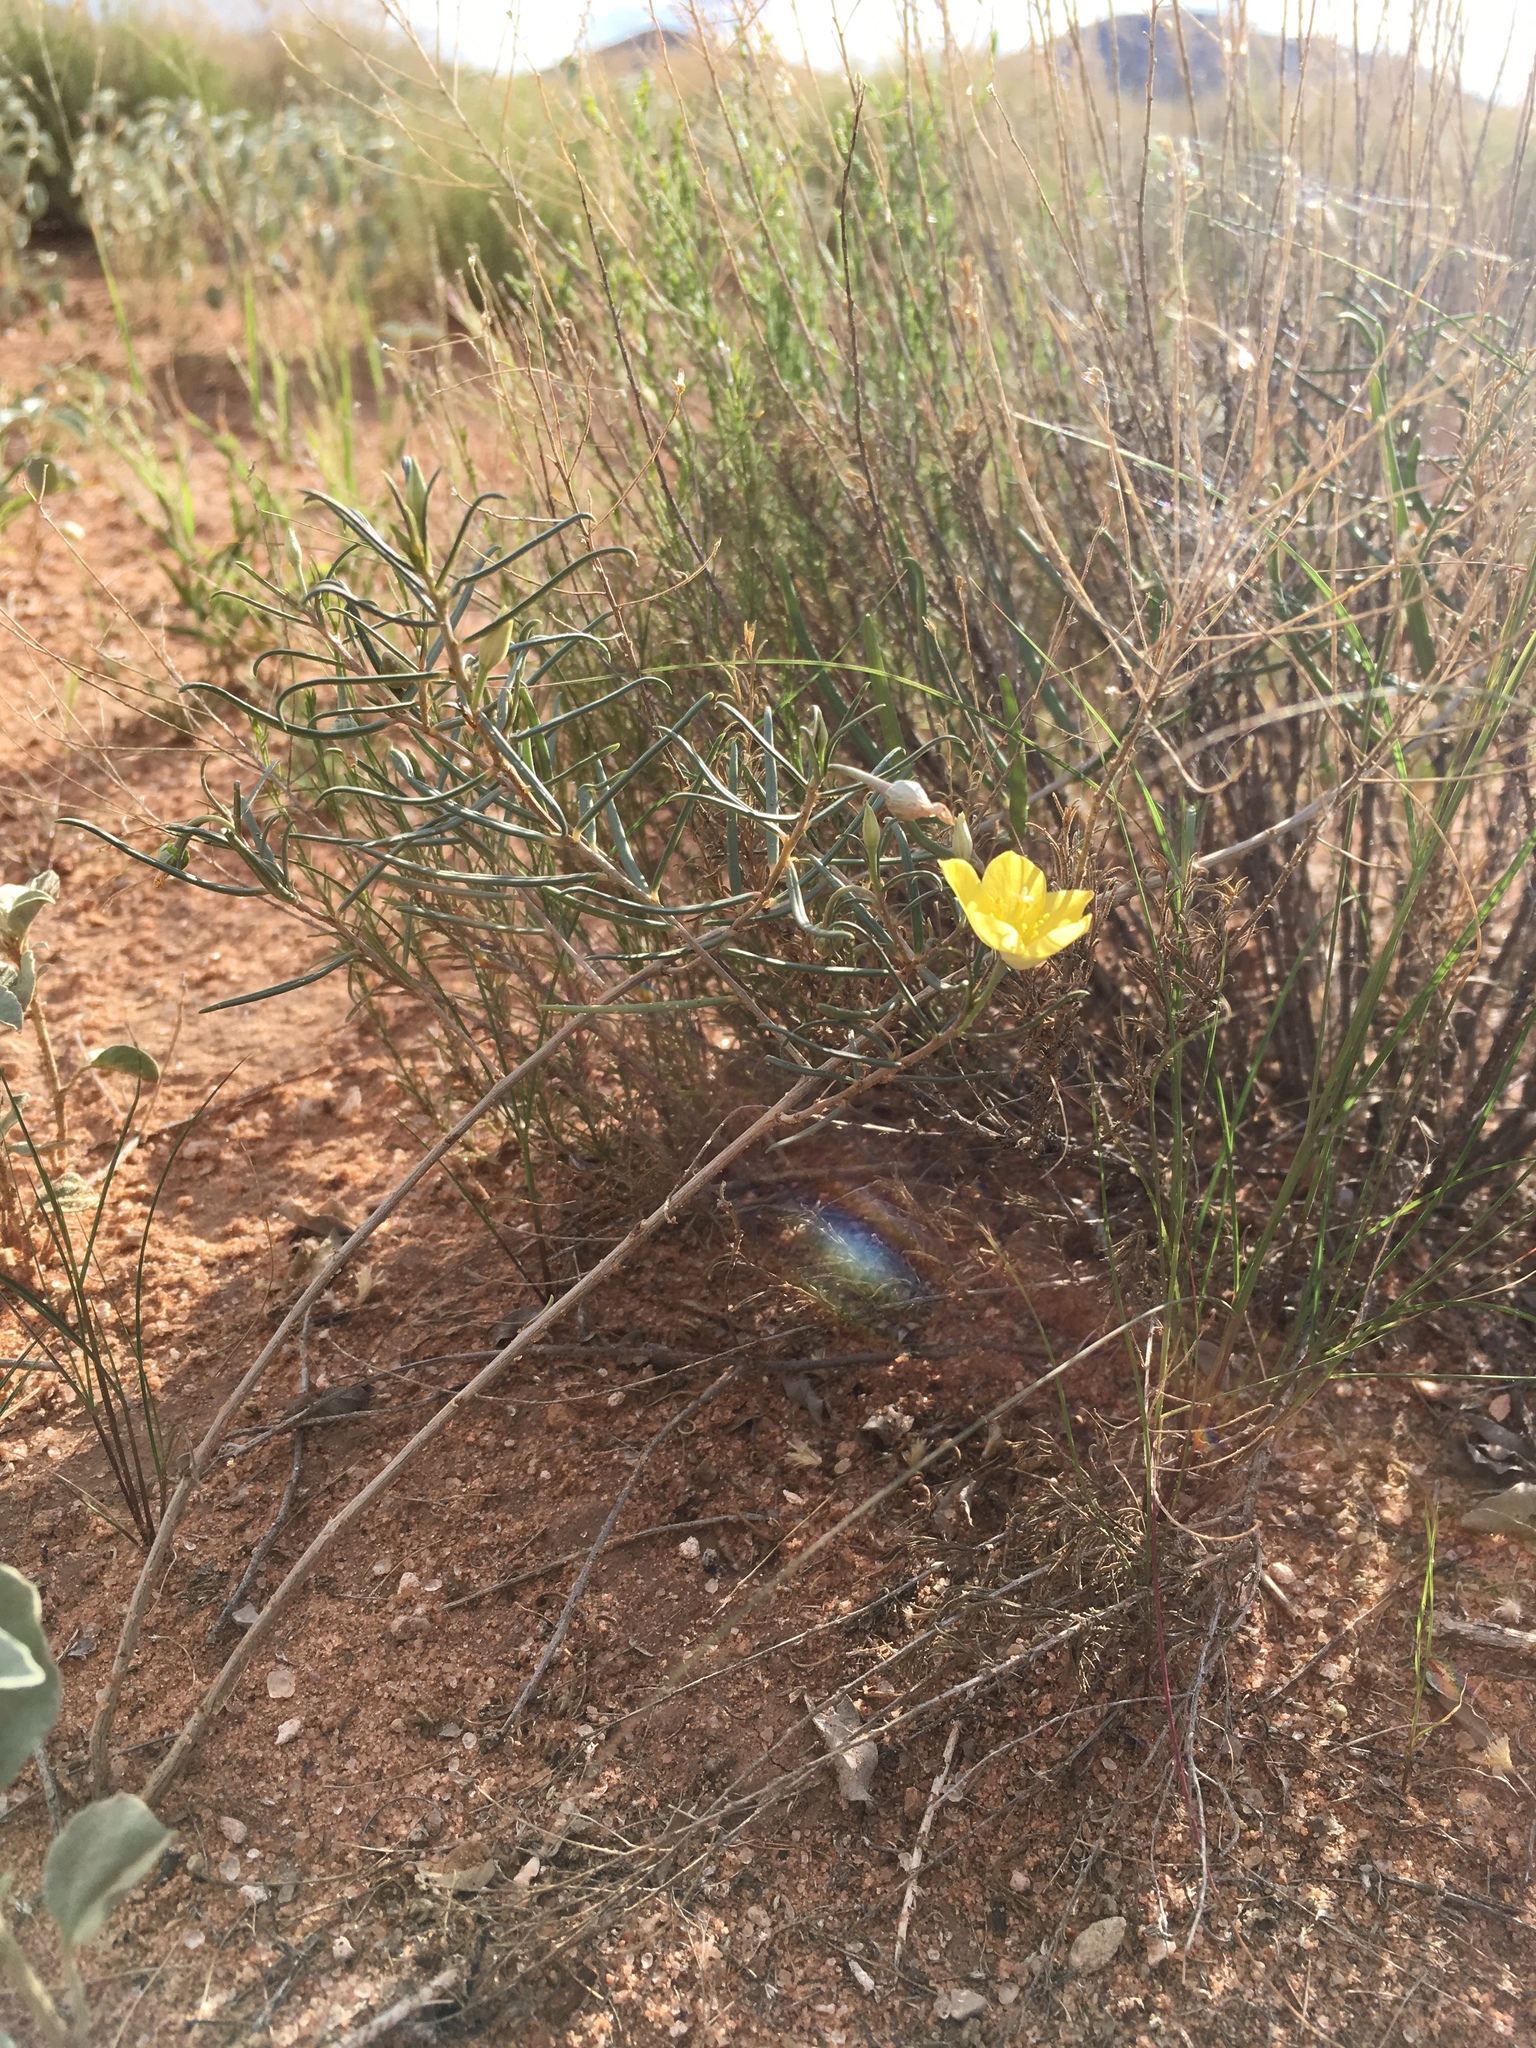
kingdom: Plantae
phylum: Tracheophyta
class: Magnoliopsida
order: Caryophyllales
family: Talinaceae
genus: Talinum
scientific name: Talinum polygaloides
